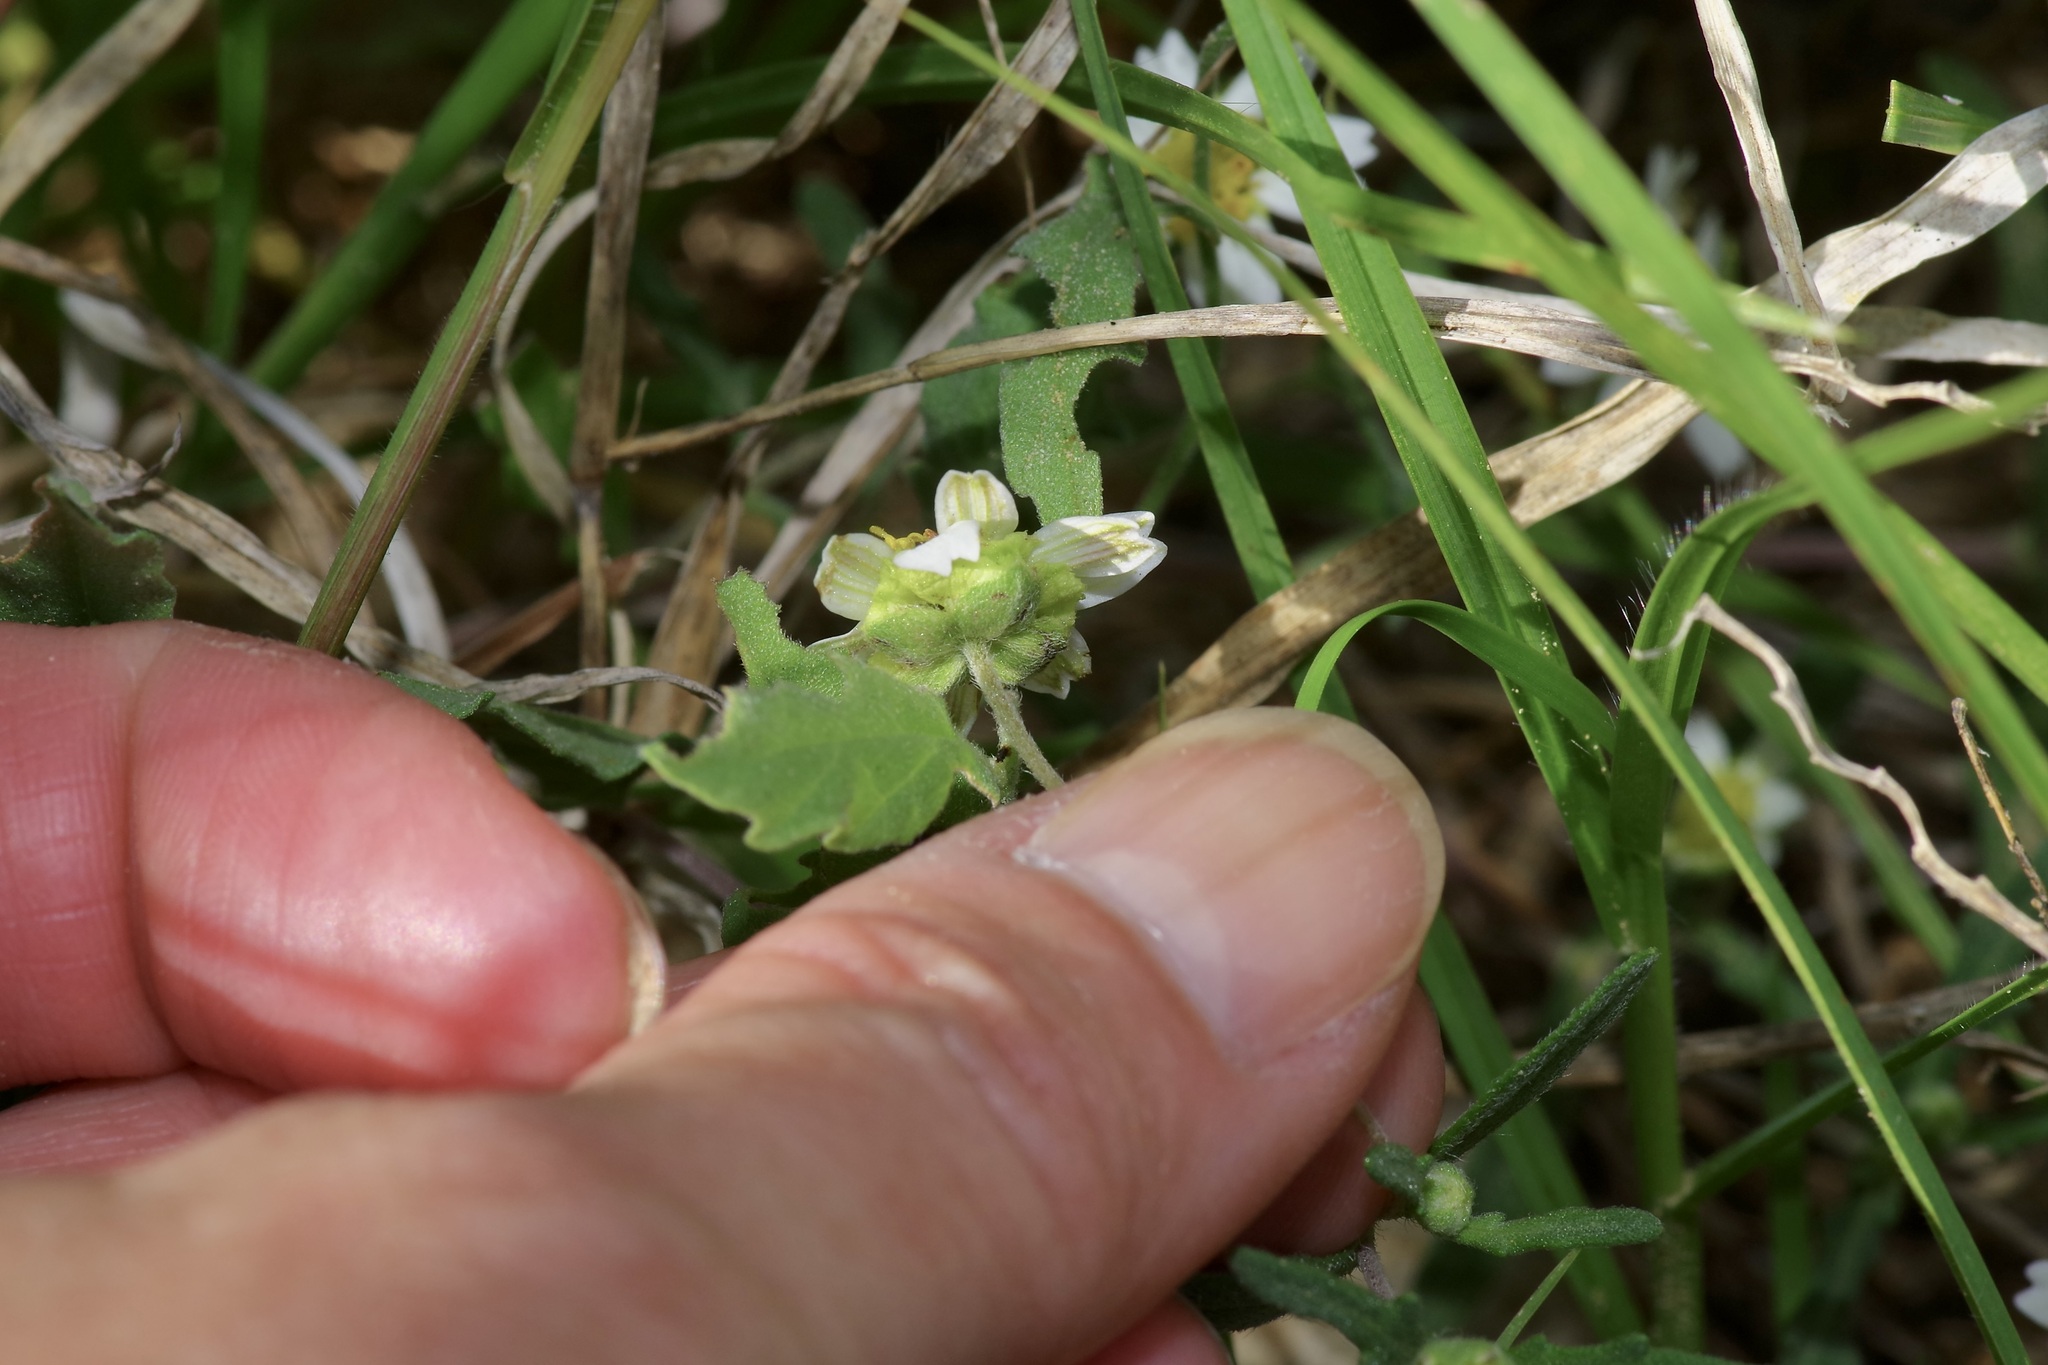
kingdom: Plantae
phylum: Tracheophyta
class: Magnoliopsida
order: Asterales
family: Asteraceae
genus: Melampodium
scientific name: Melampodium cinereum
